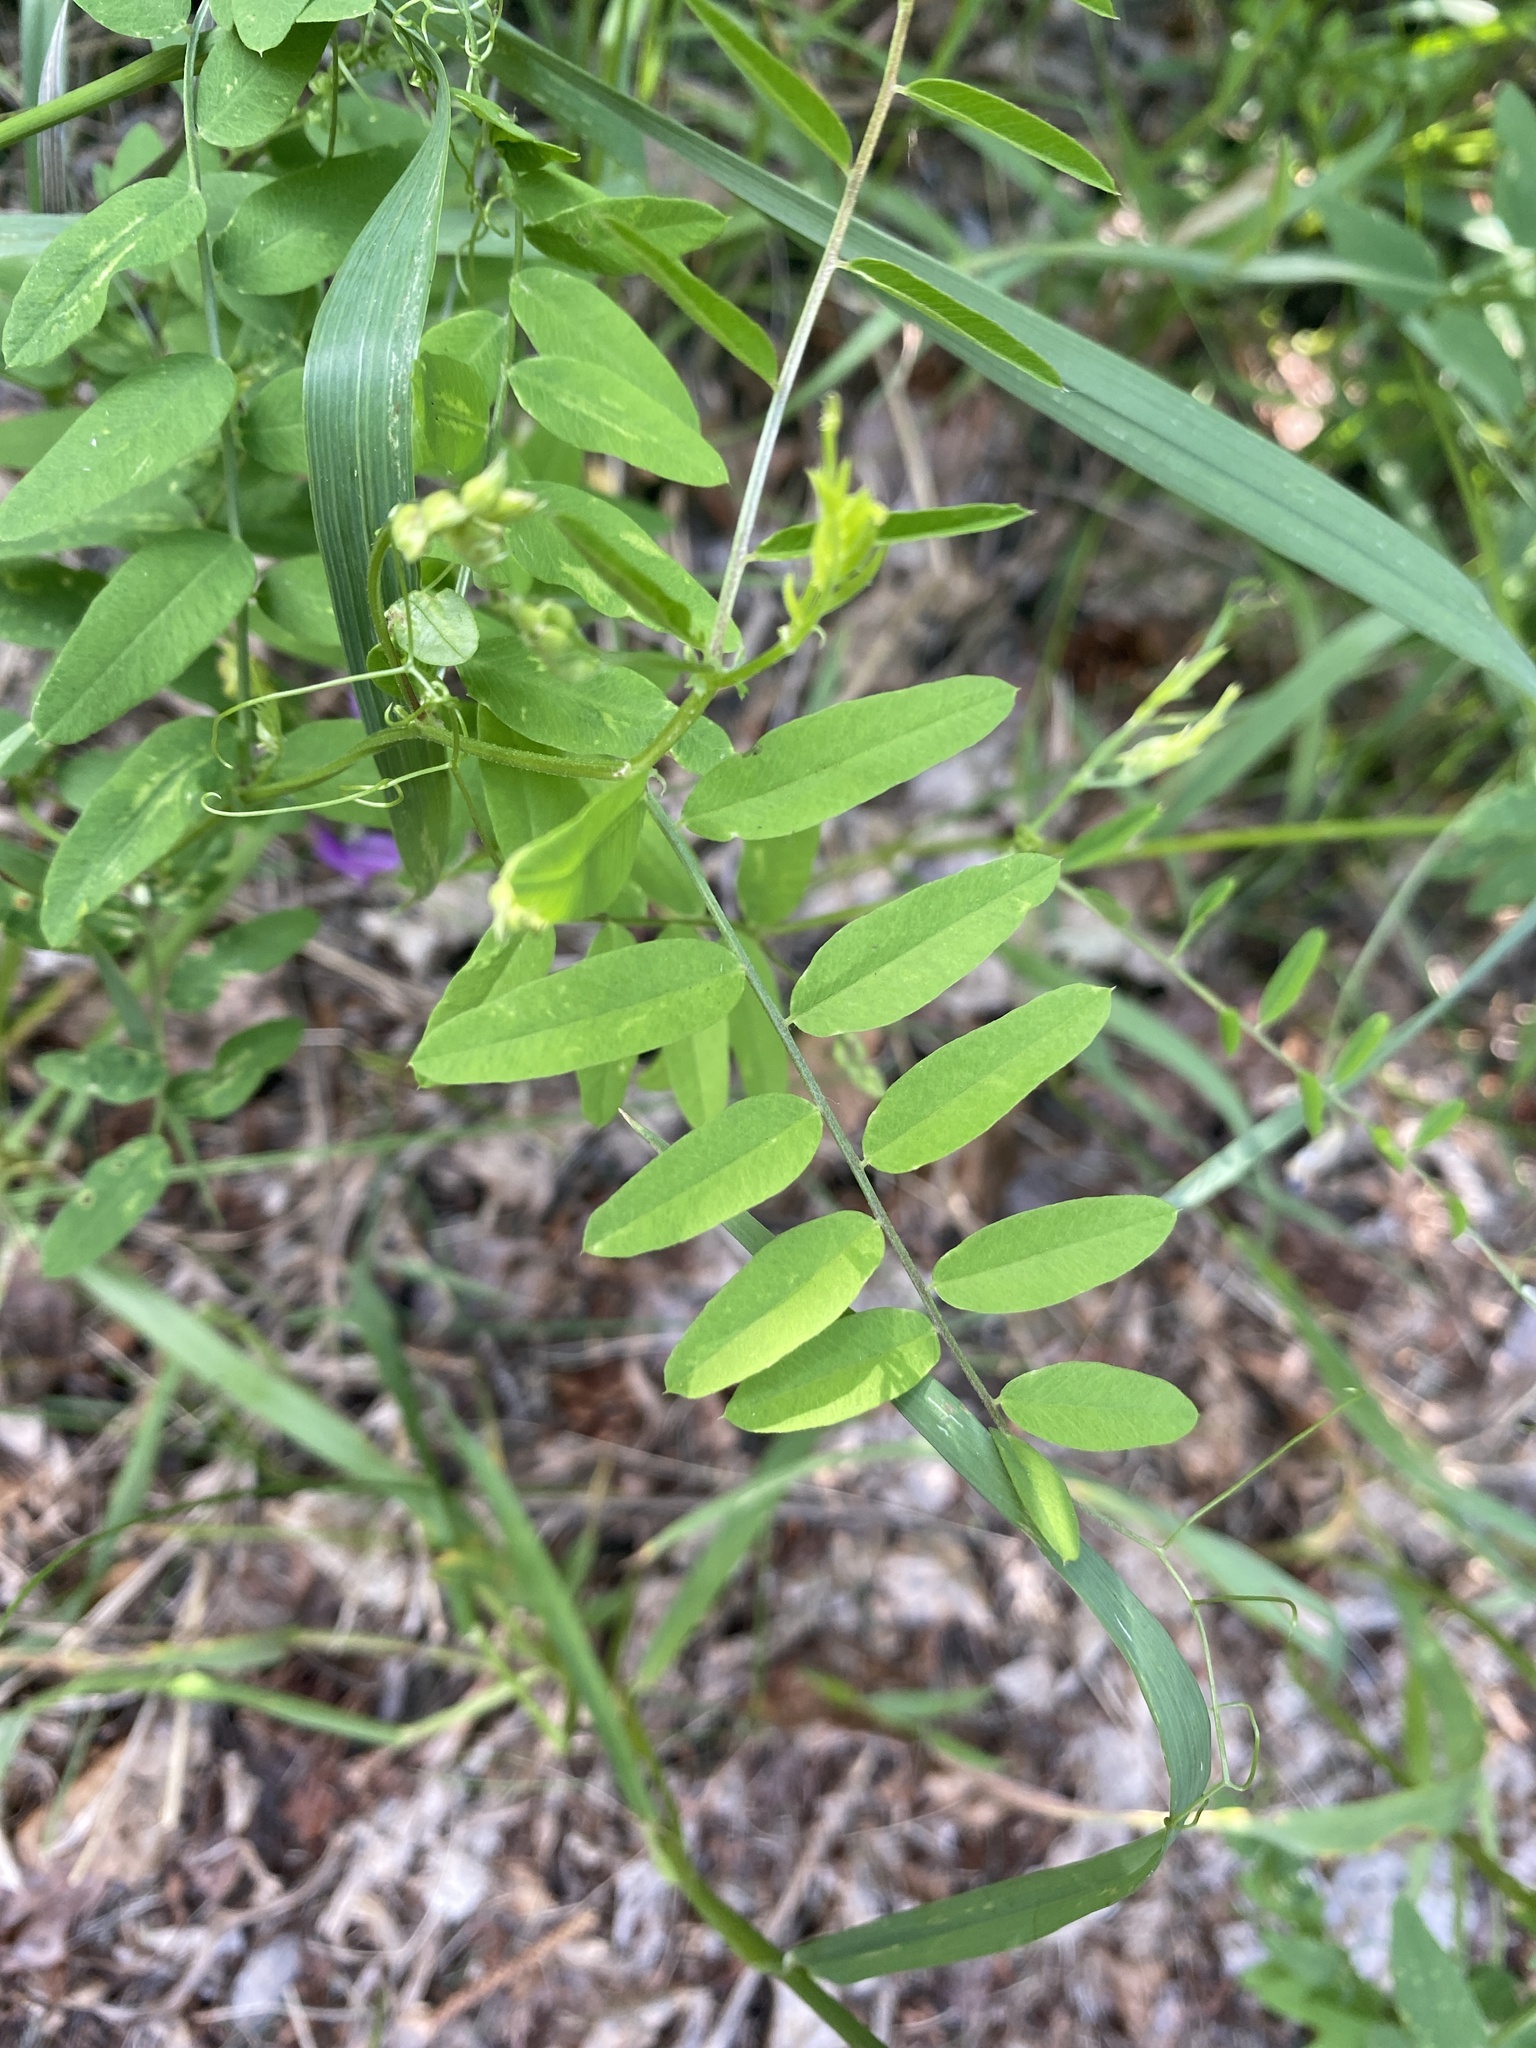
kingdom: Plantae
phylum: Tracheophyta
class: Magnoliopsida
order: Fabales
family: Fabaceae
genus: Vicia
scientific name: Vicia americana
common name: American vetch
